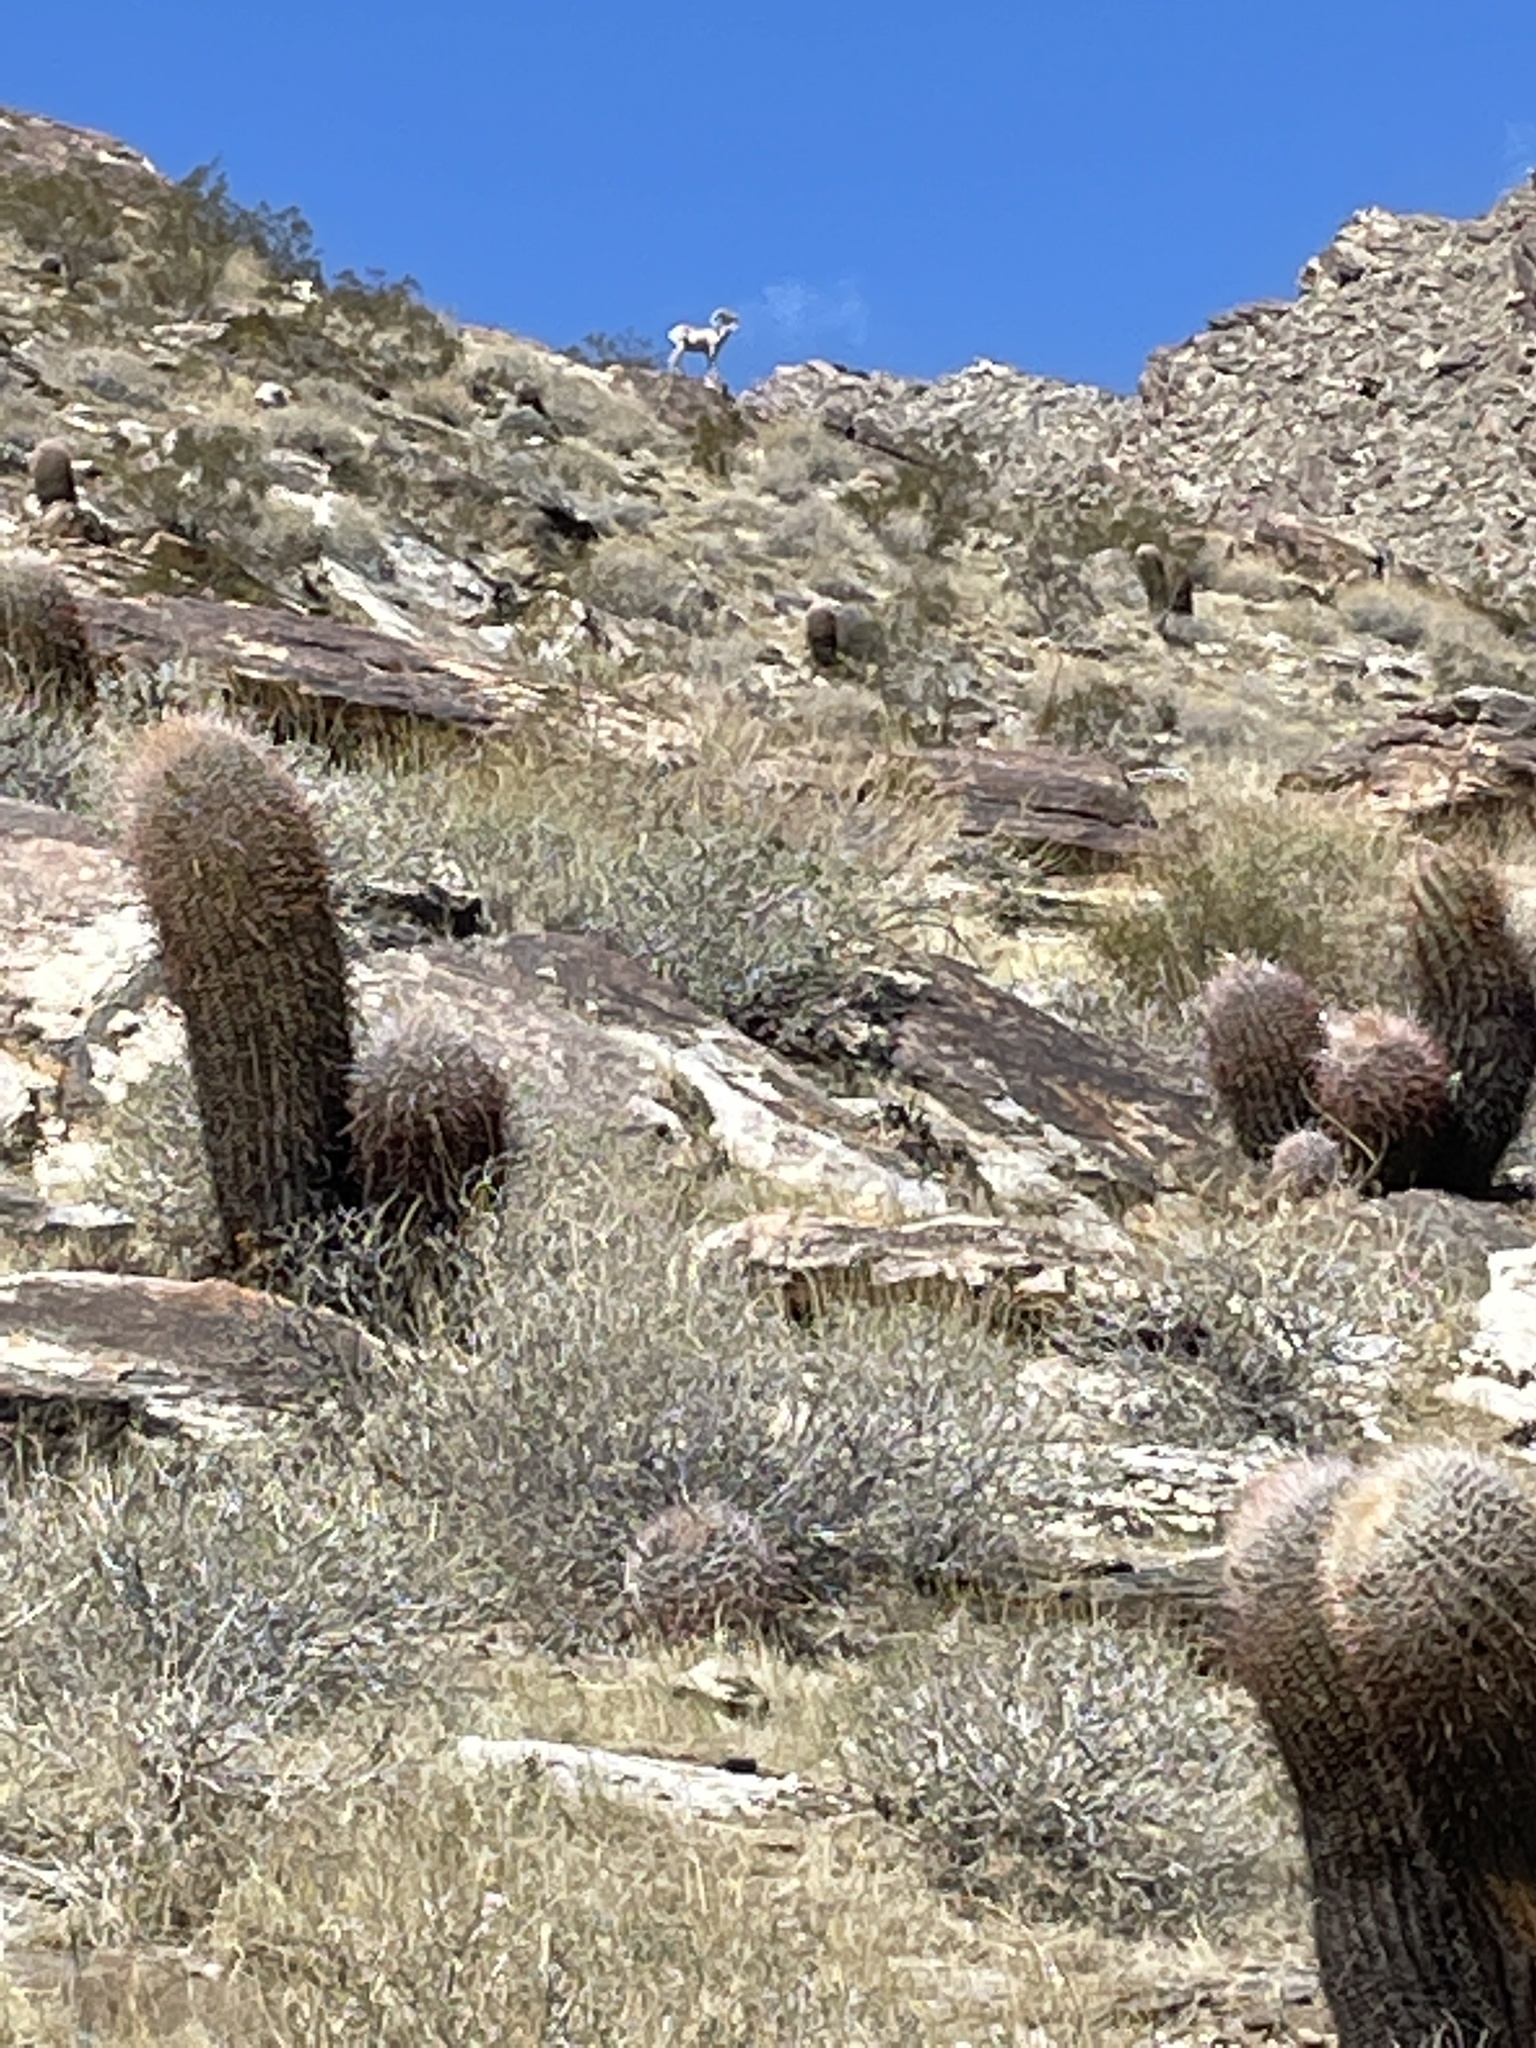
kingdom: Animalia
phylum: Chordata
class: Mammalia
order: Artiodactyla
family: Bovidae
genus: Ovis
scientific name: Ovis canadensis
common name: Bighorn sheep
